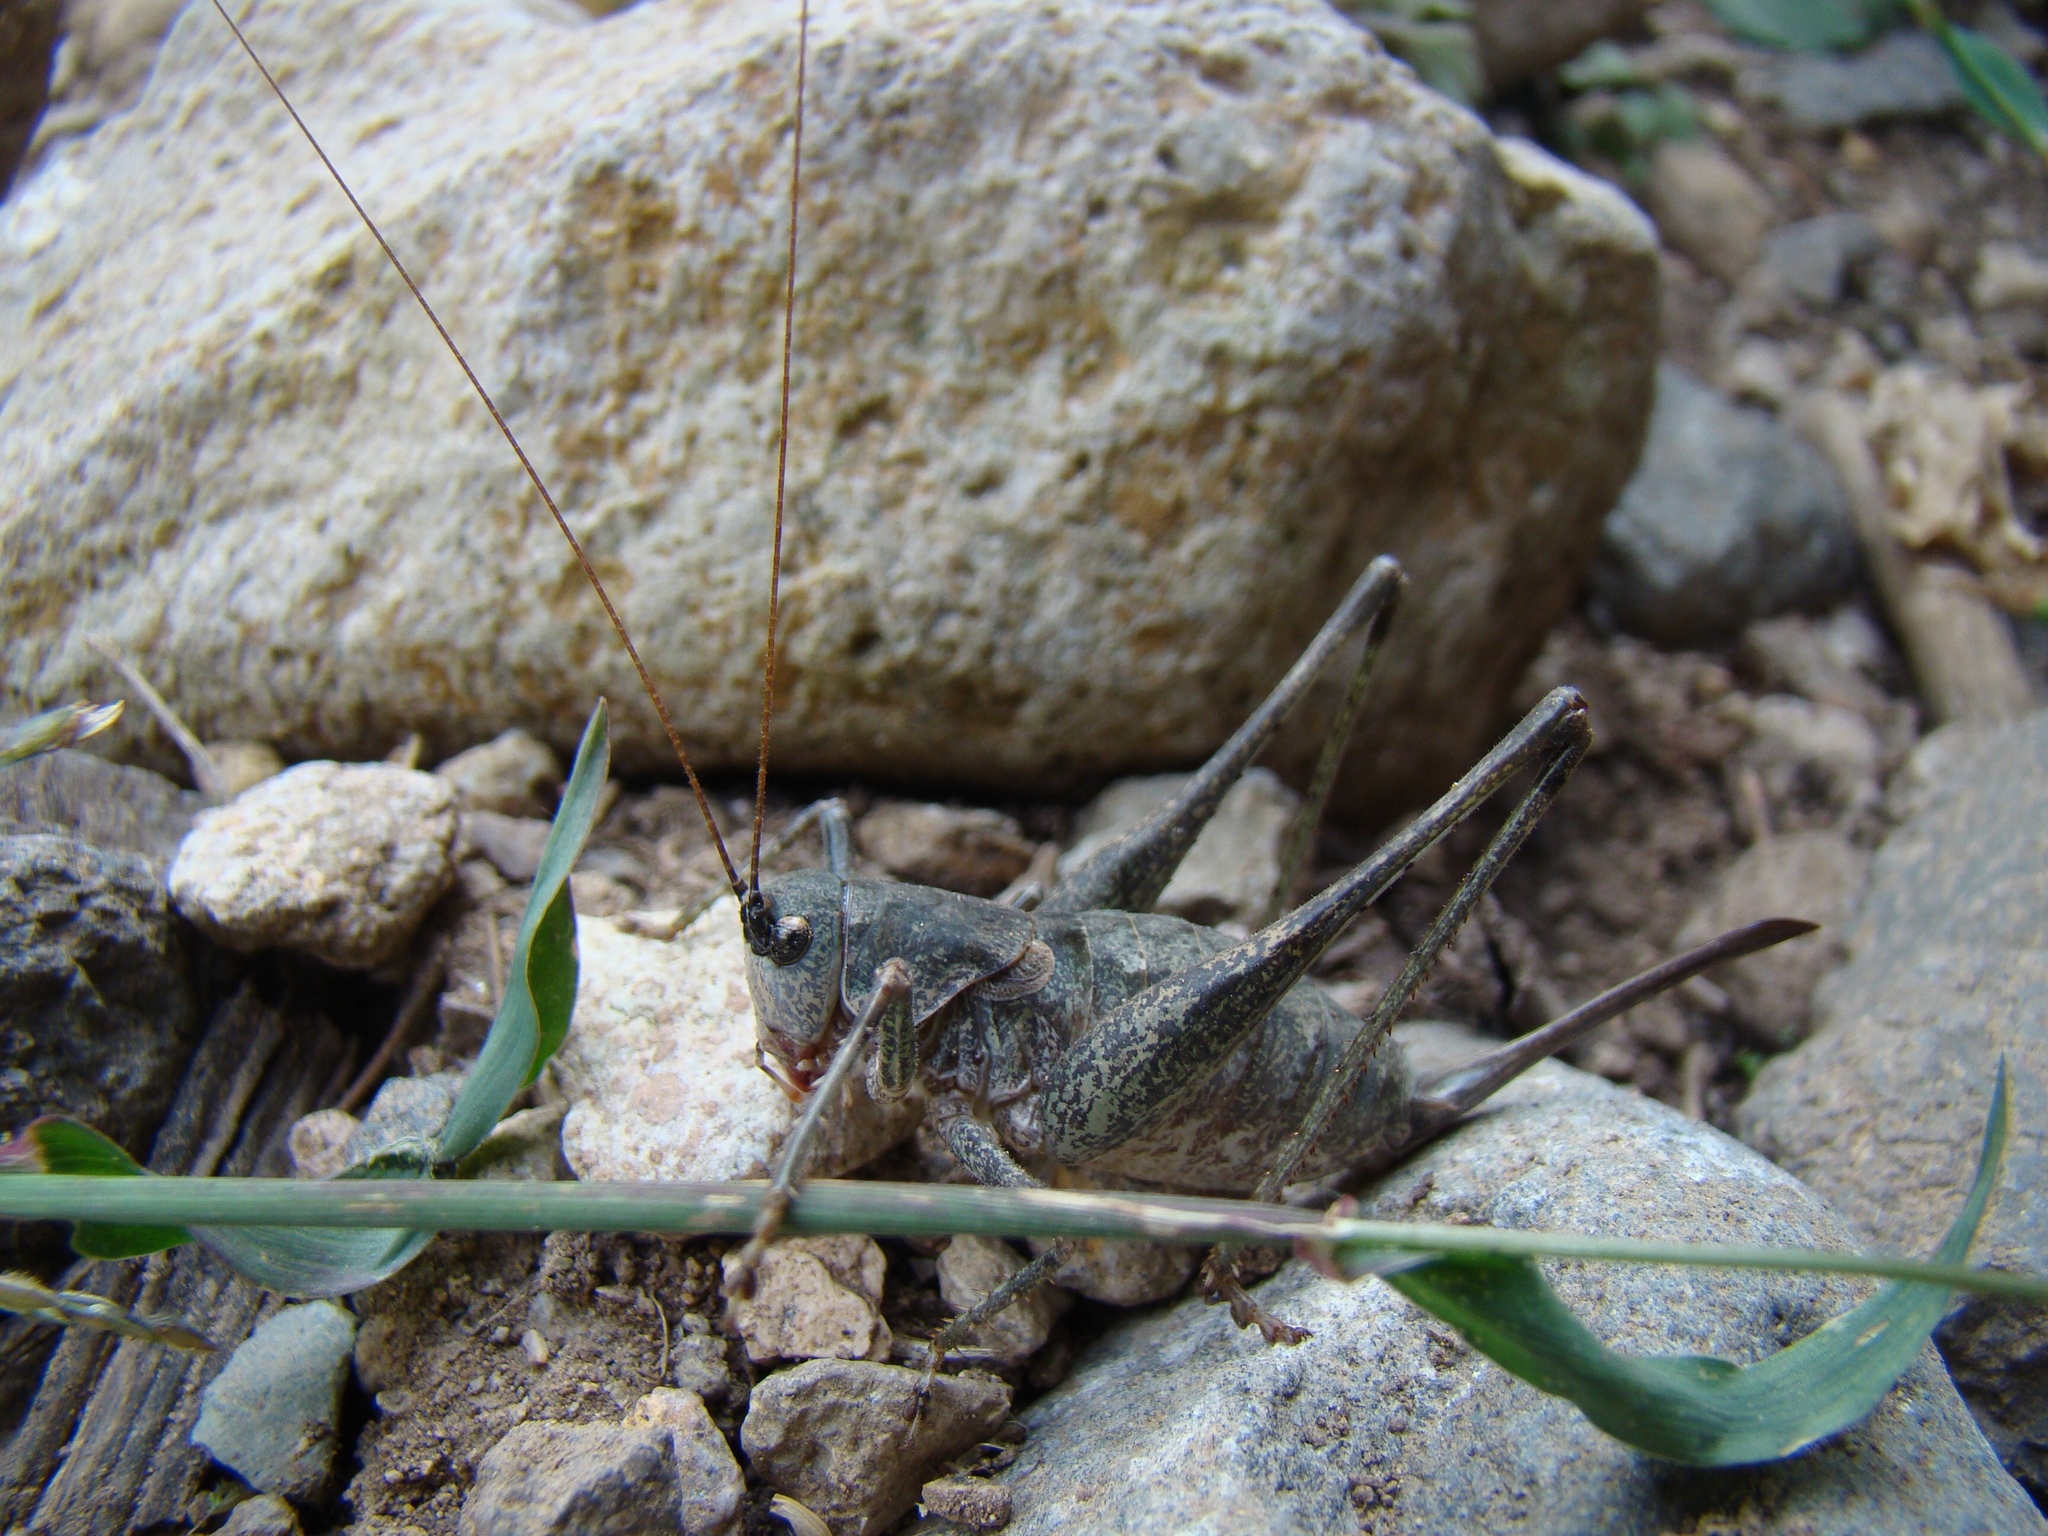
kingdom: Animalia
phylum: Arthropoda
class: Insecta
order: Orthoptera
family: Tettigoniidae
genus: Paradrymadusa
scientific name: Paradrymadusa galitzini
